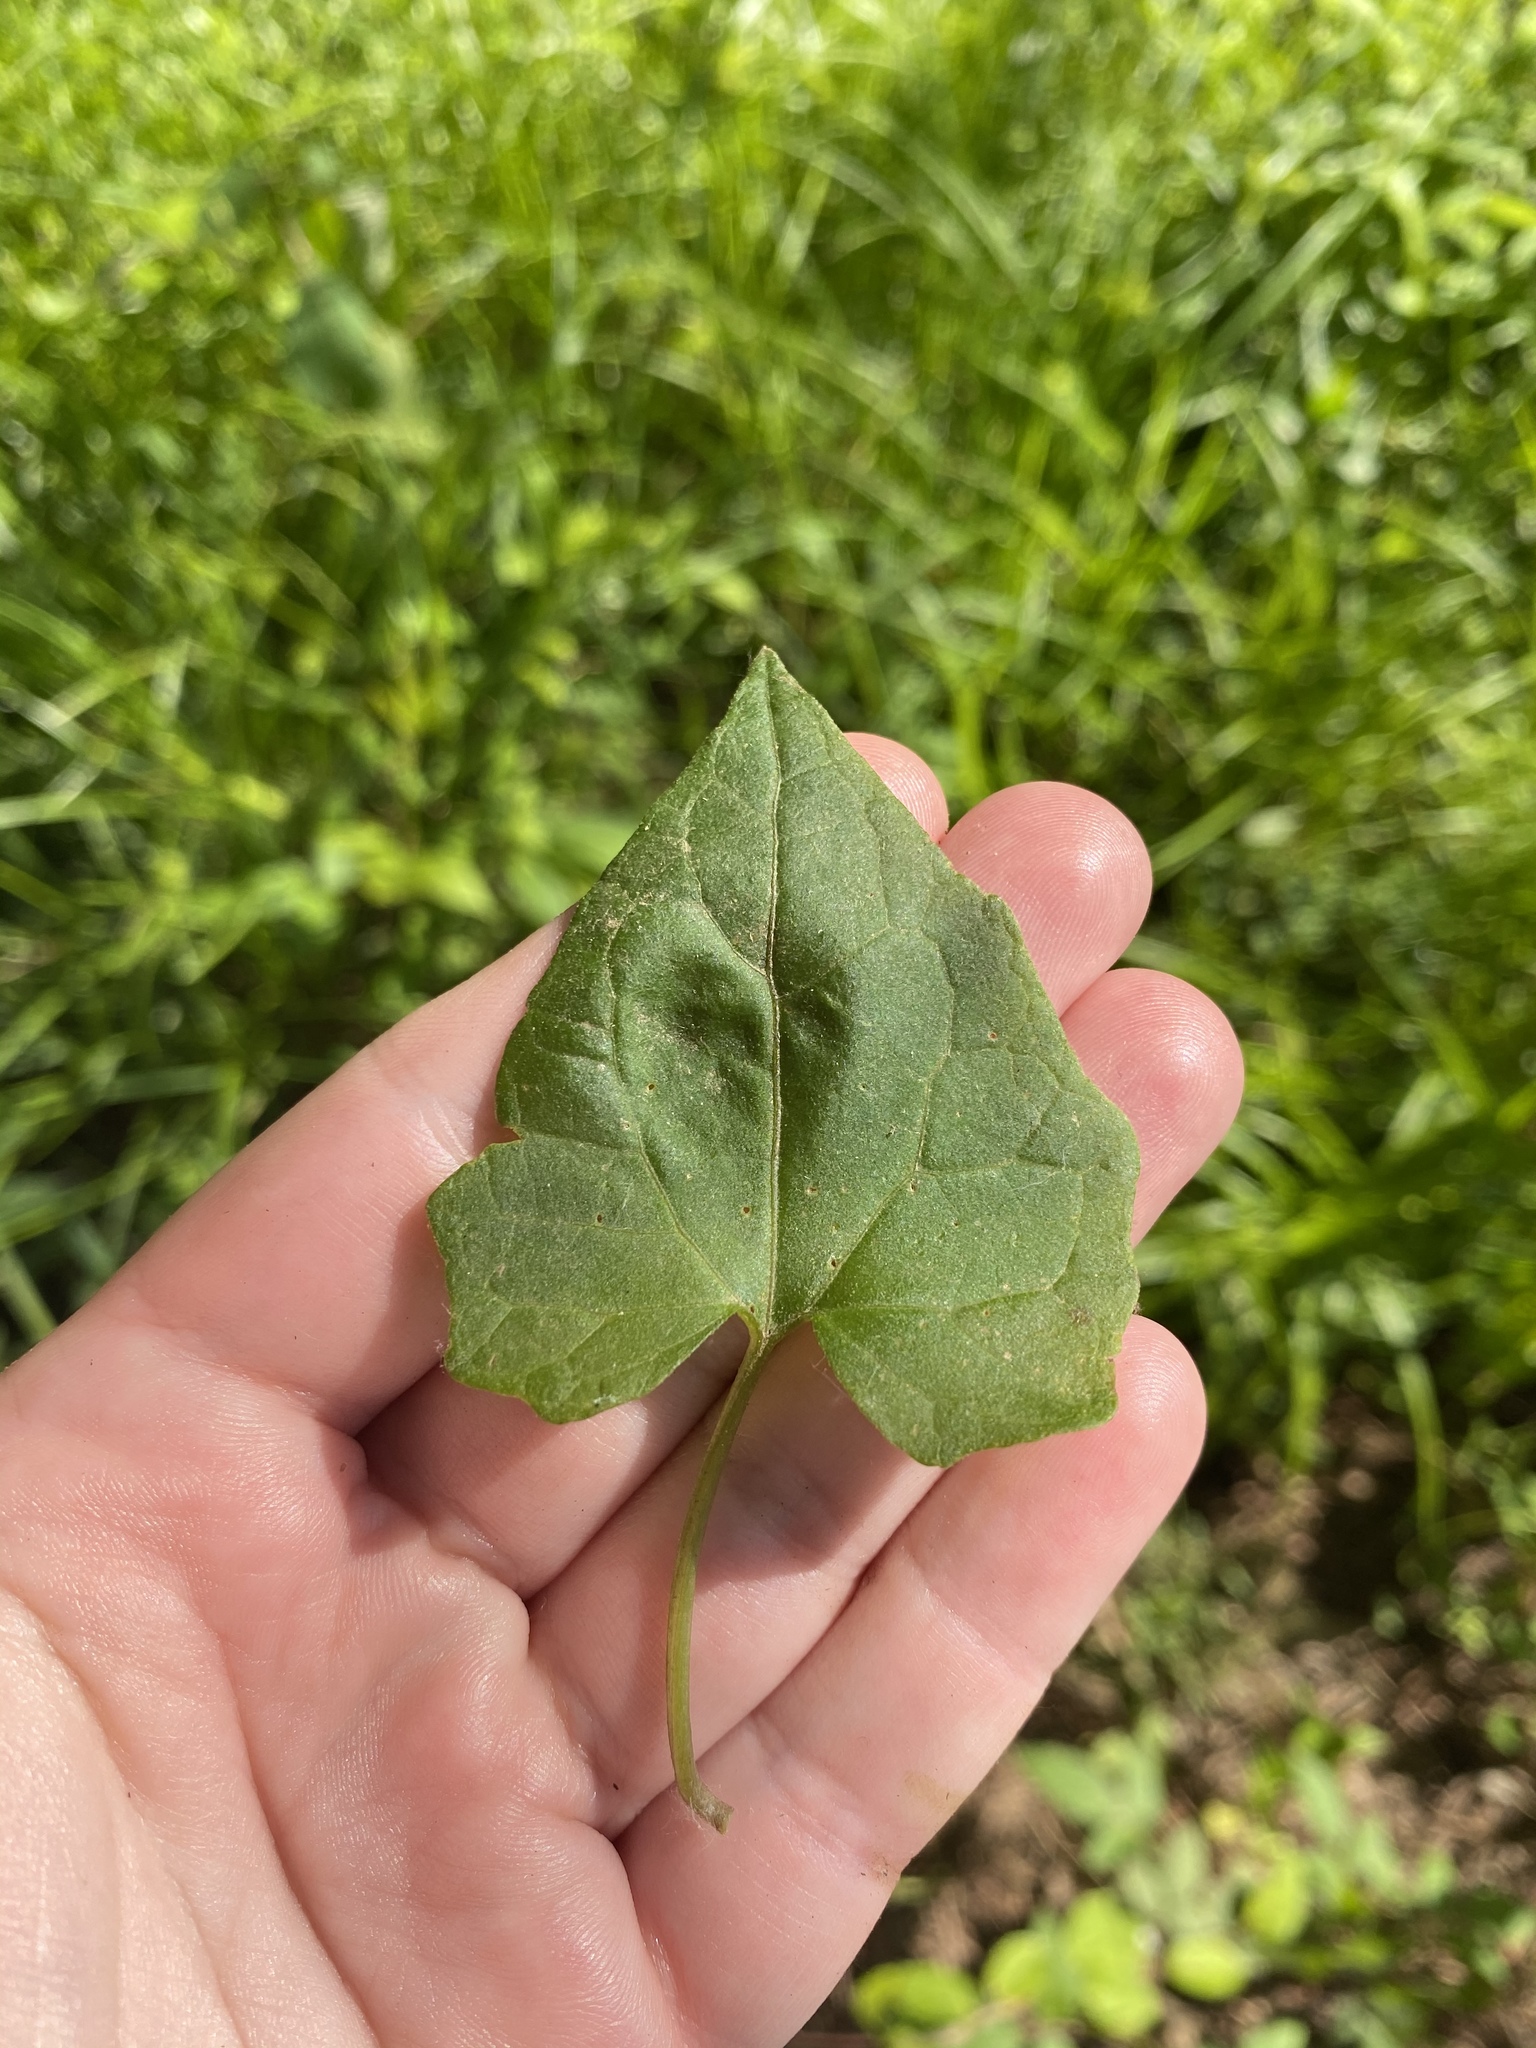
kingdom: Plantae
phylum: Tracheophyta
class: Magnoliopsida
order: Asterales
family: Asteraceae
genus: Mikania
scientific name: Mikania scandens
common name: Climbing hempvine
